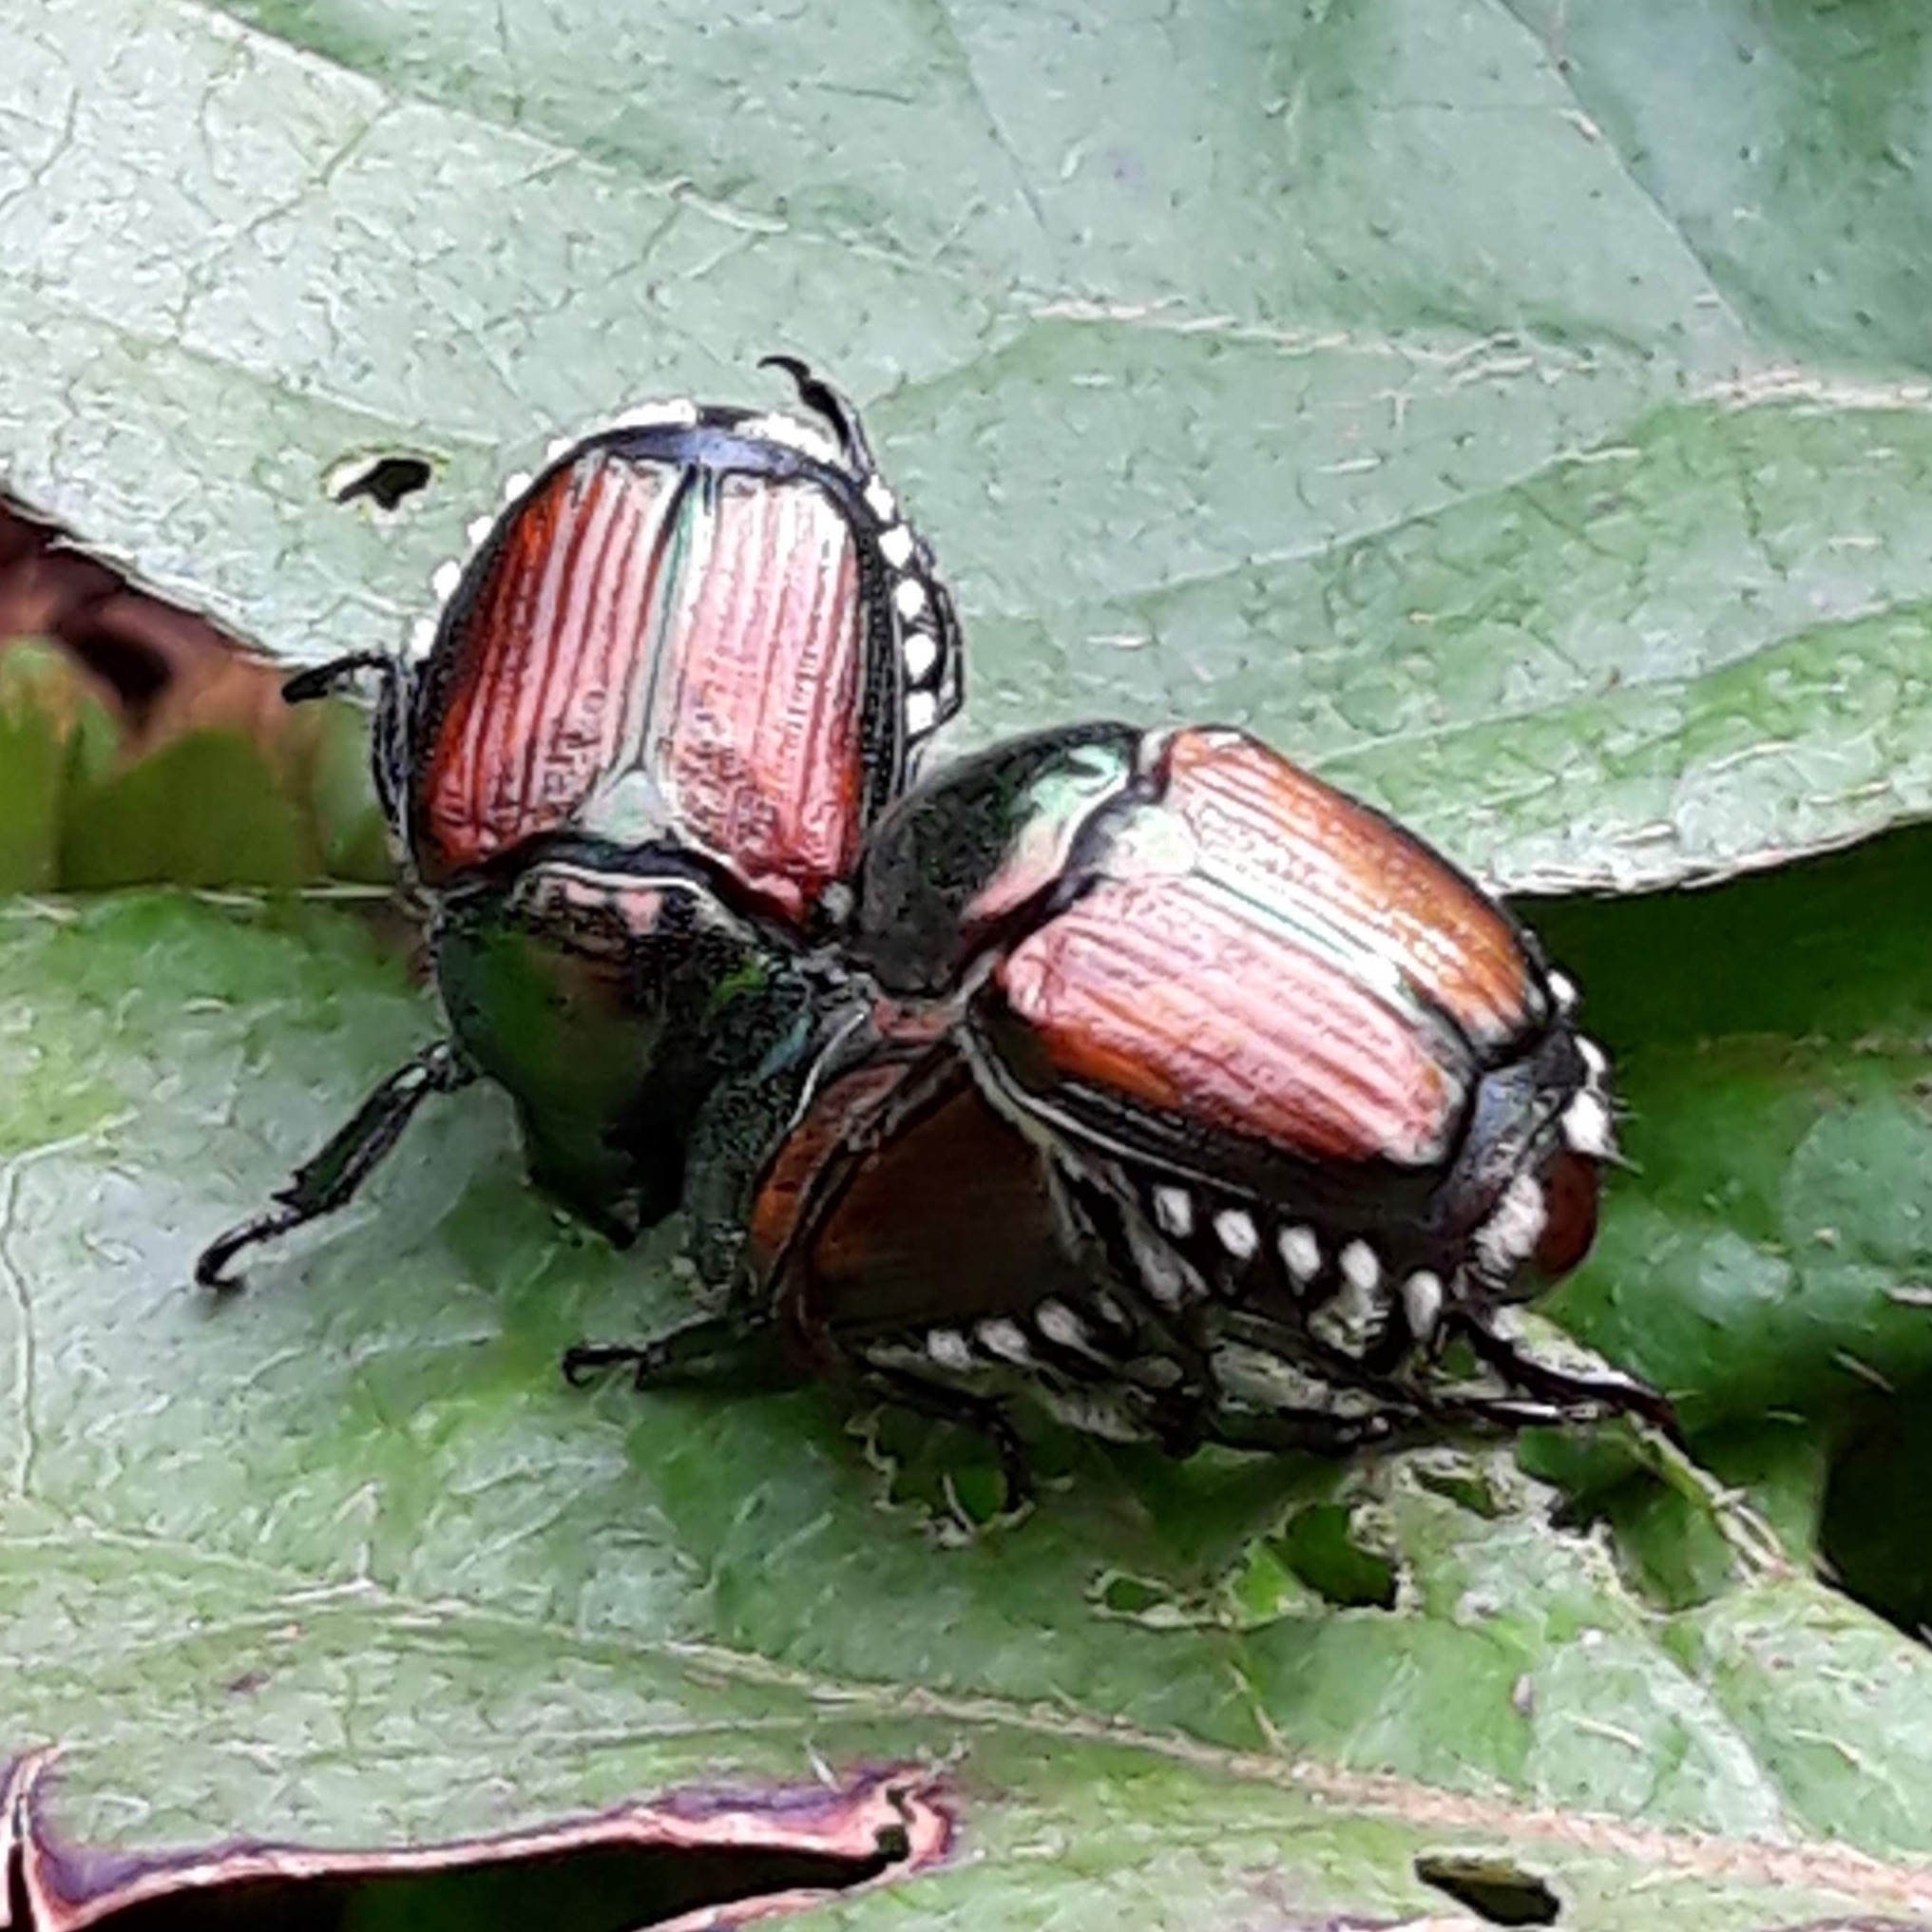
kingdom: Animalia
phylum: Arthropoda
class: Insecta
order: Coleoptera
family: Scarabaeidae
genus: Popillia
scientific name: Popillia japonica
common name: Japanese beetle
